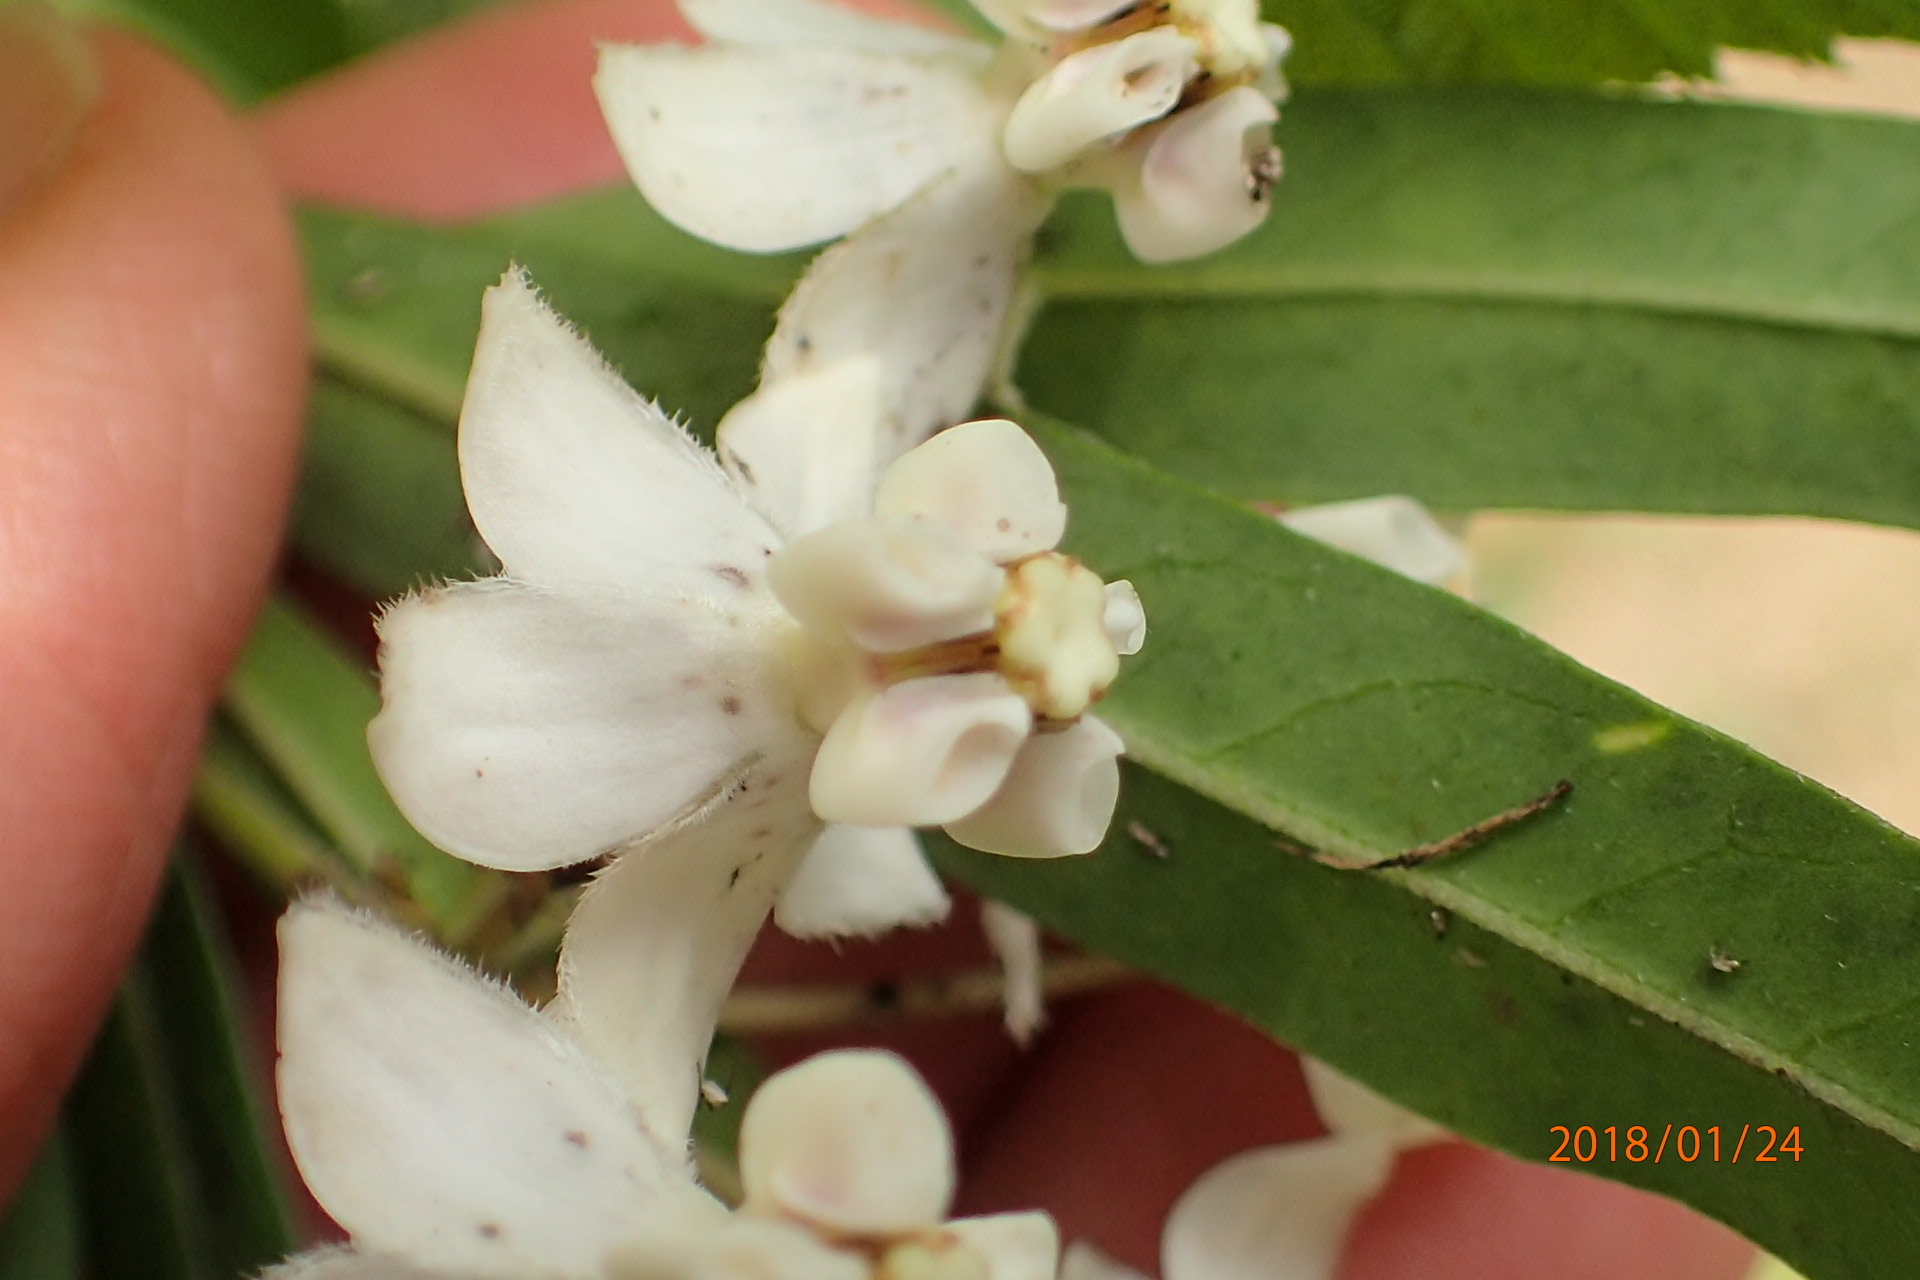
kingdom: Plantae
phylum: Tracheophyta
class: Magnoliopsida
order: Gentianales
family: Apocynaceae
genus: Gomphocarpus
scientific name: Gomphocarpus physocarpus
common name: Balloon cotton bush
